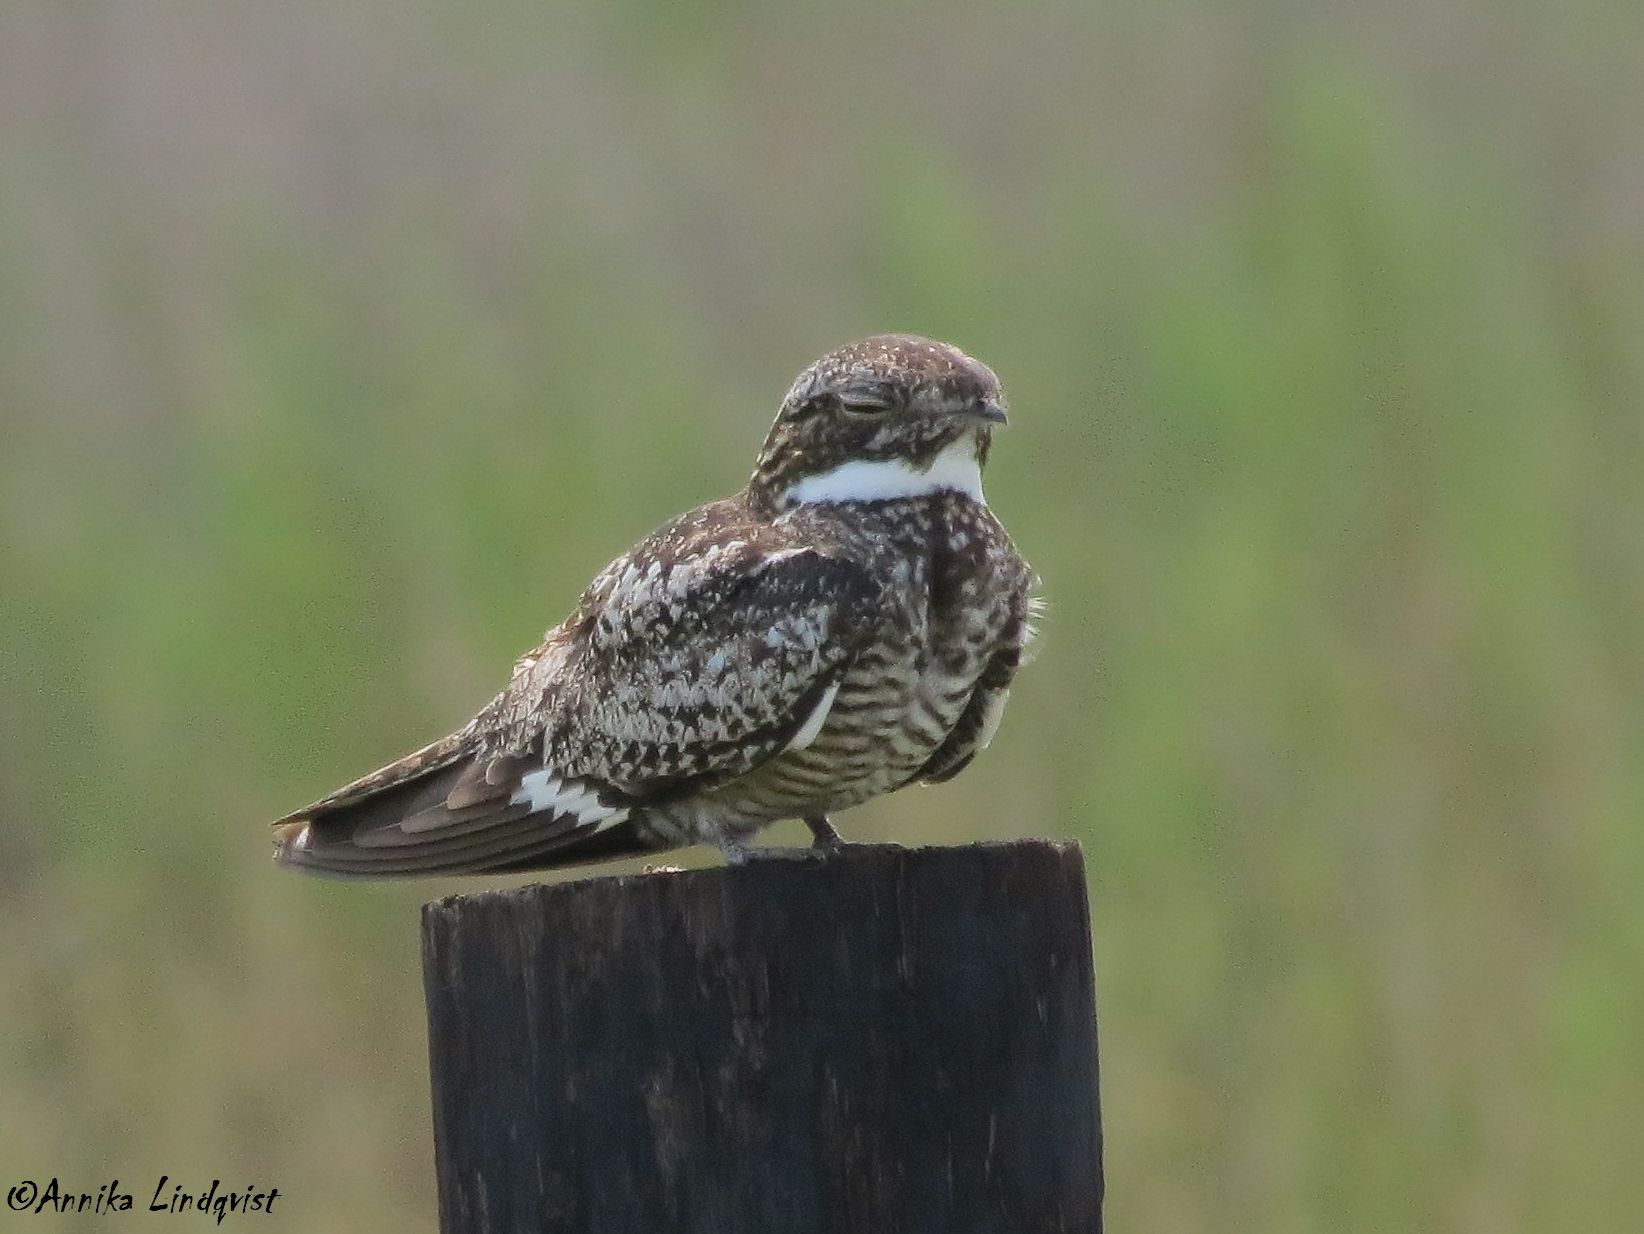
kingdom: Animalia
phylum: Chordata
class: Aves
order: Caprimulgiformes
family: Caprimulgidae
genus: Chordeiles
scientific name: Chordeiles minor
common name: Common nighthawk
